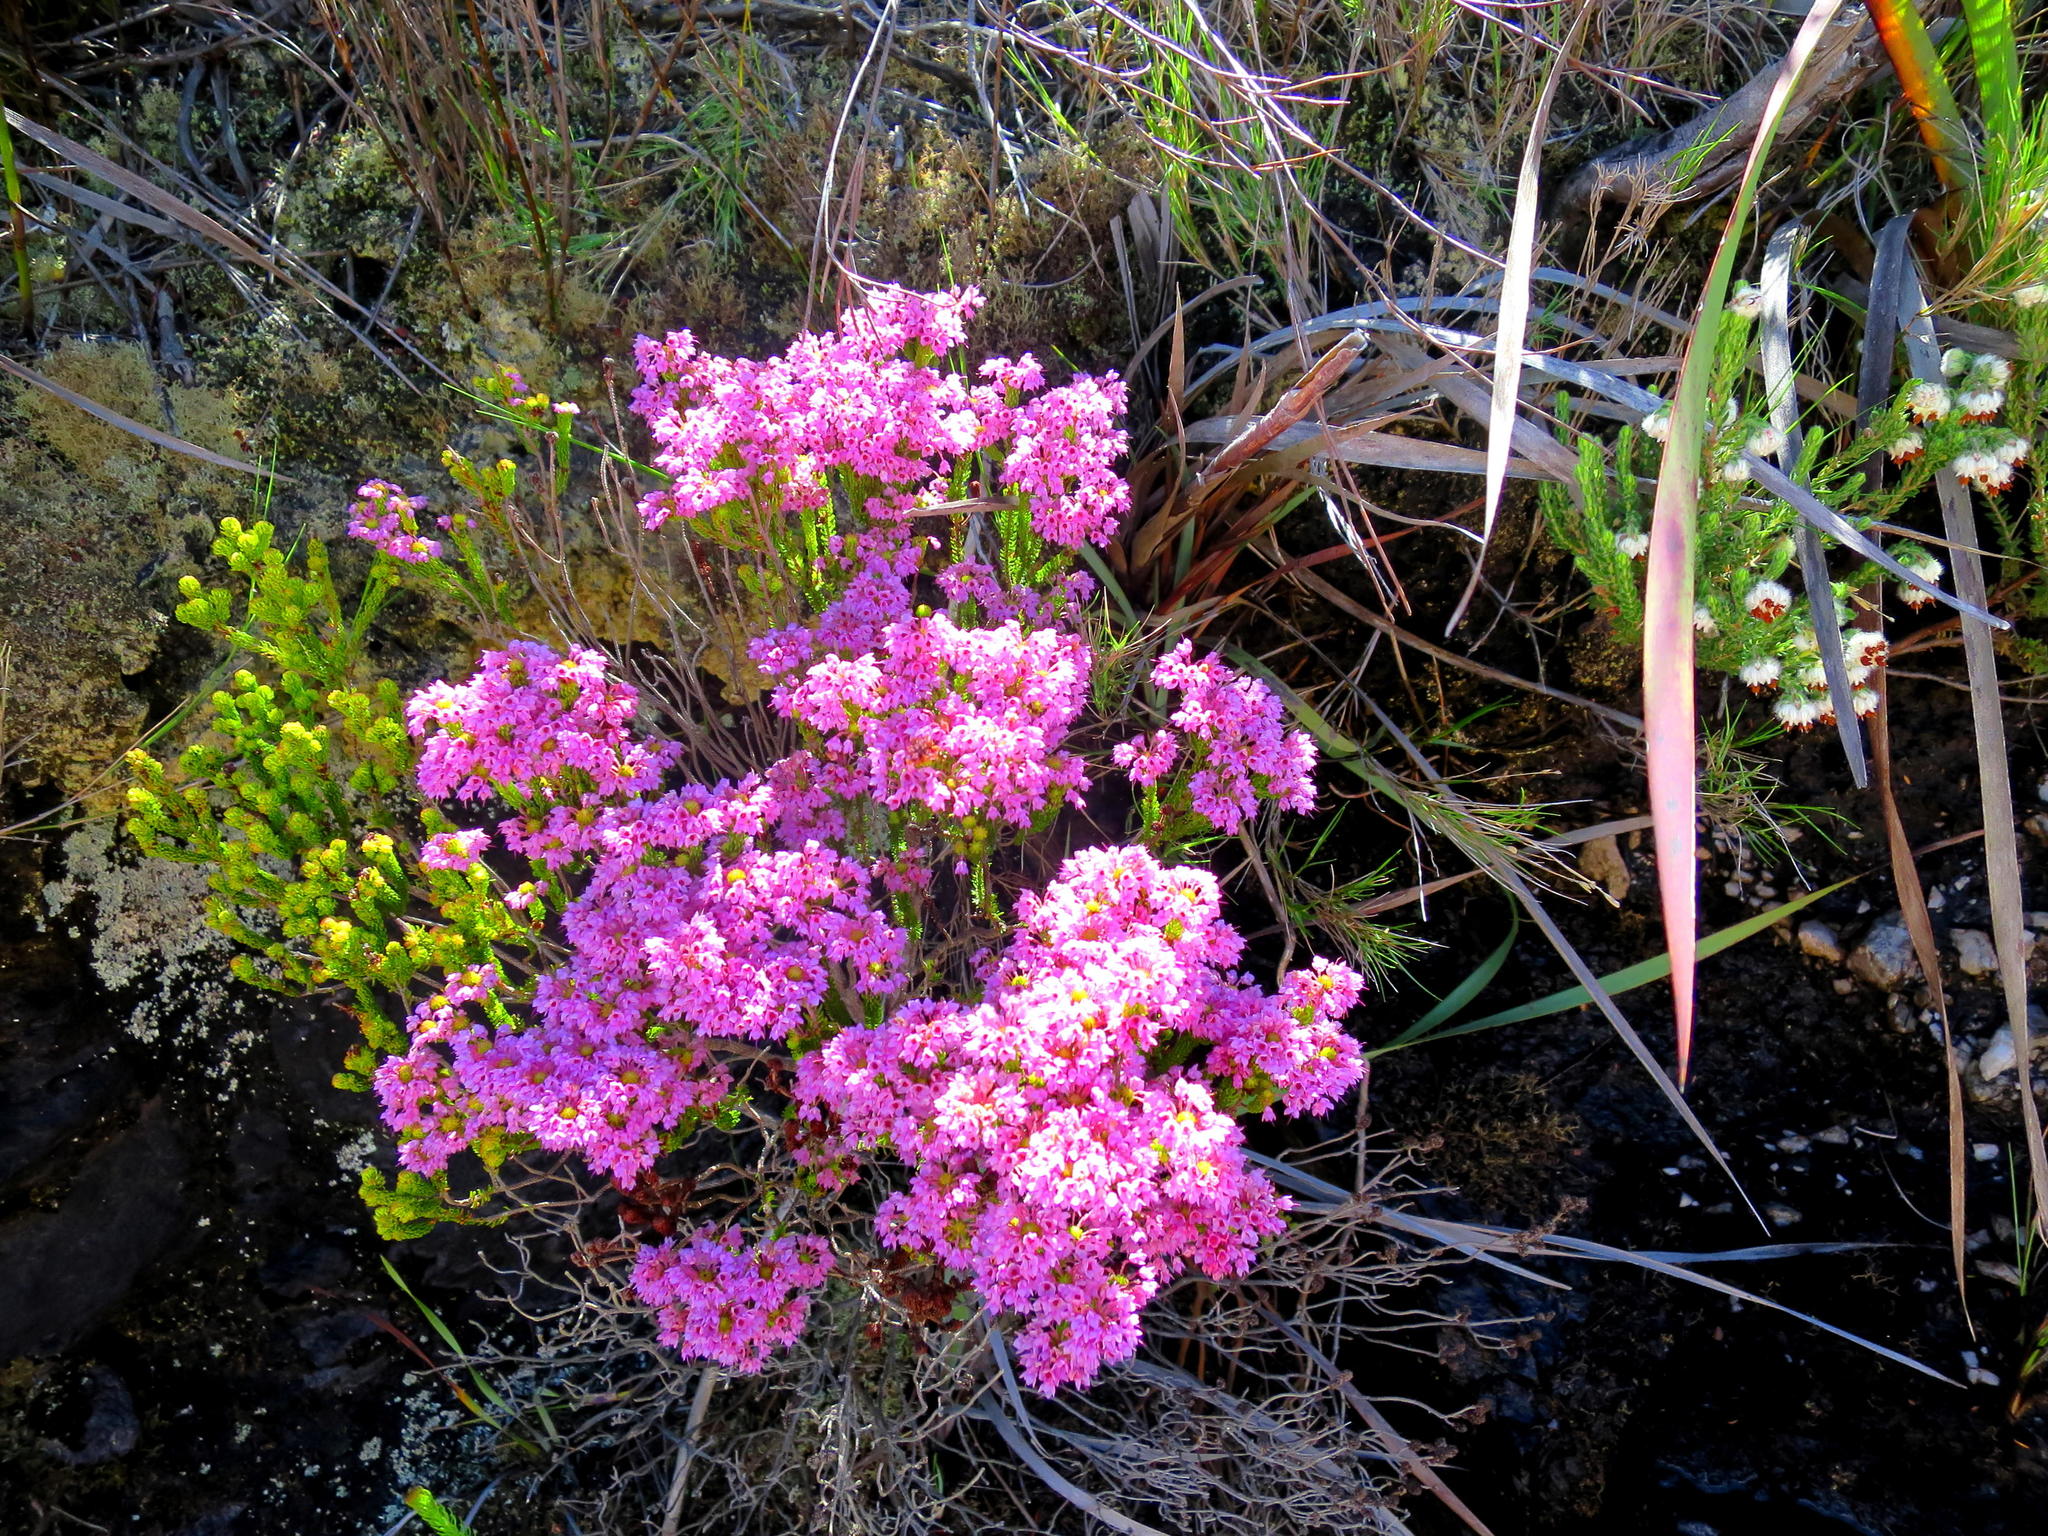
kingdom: Plantae
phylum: Tracheophyta
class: Magnoliopsida
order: Ericales
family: Ericaceae
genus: Erica
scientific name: Erica seriphiifolia
